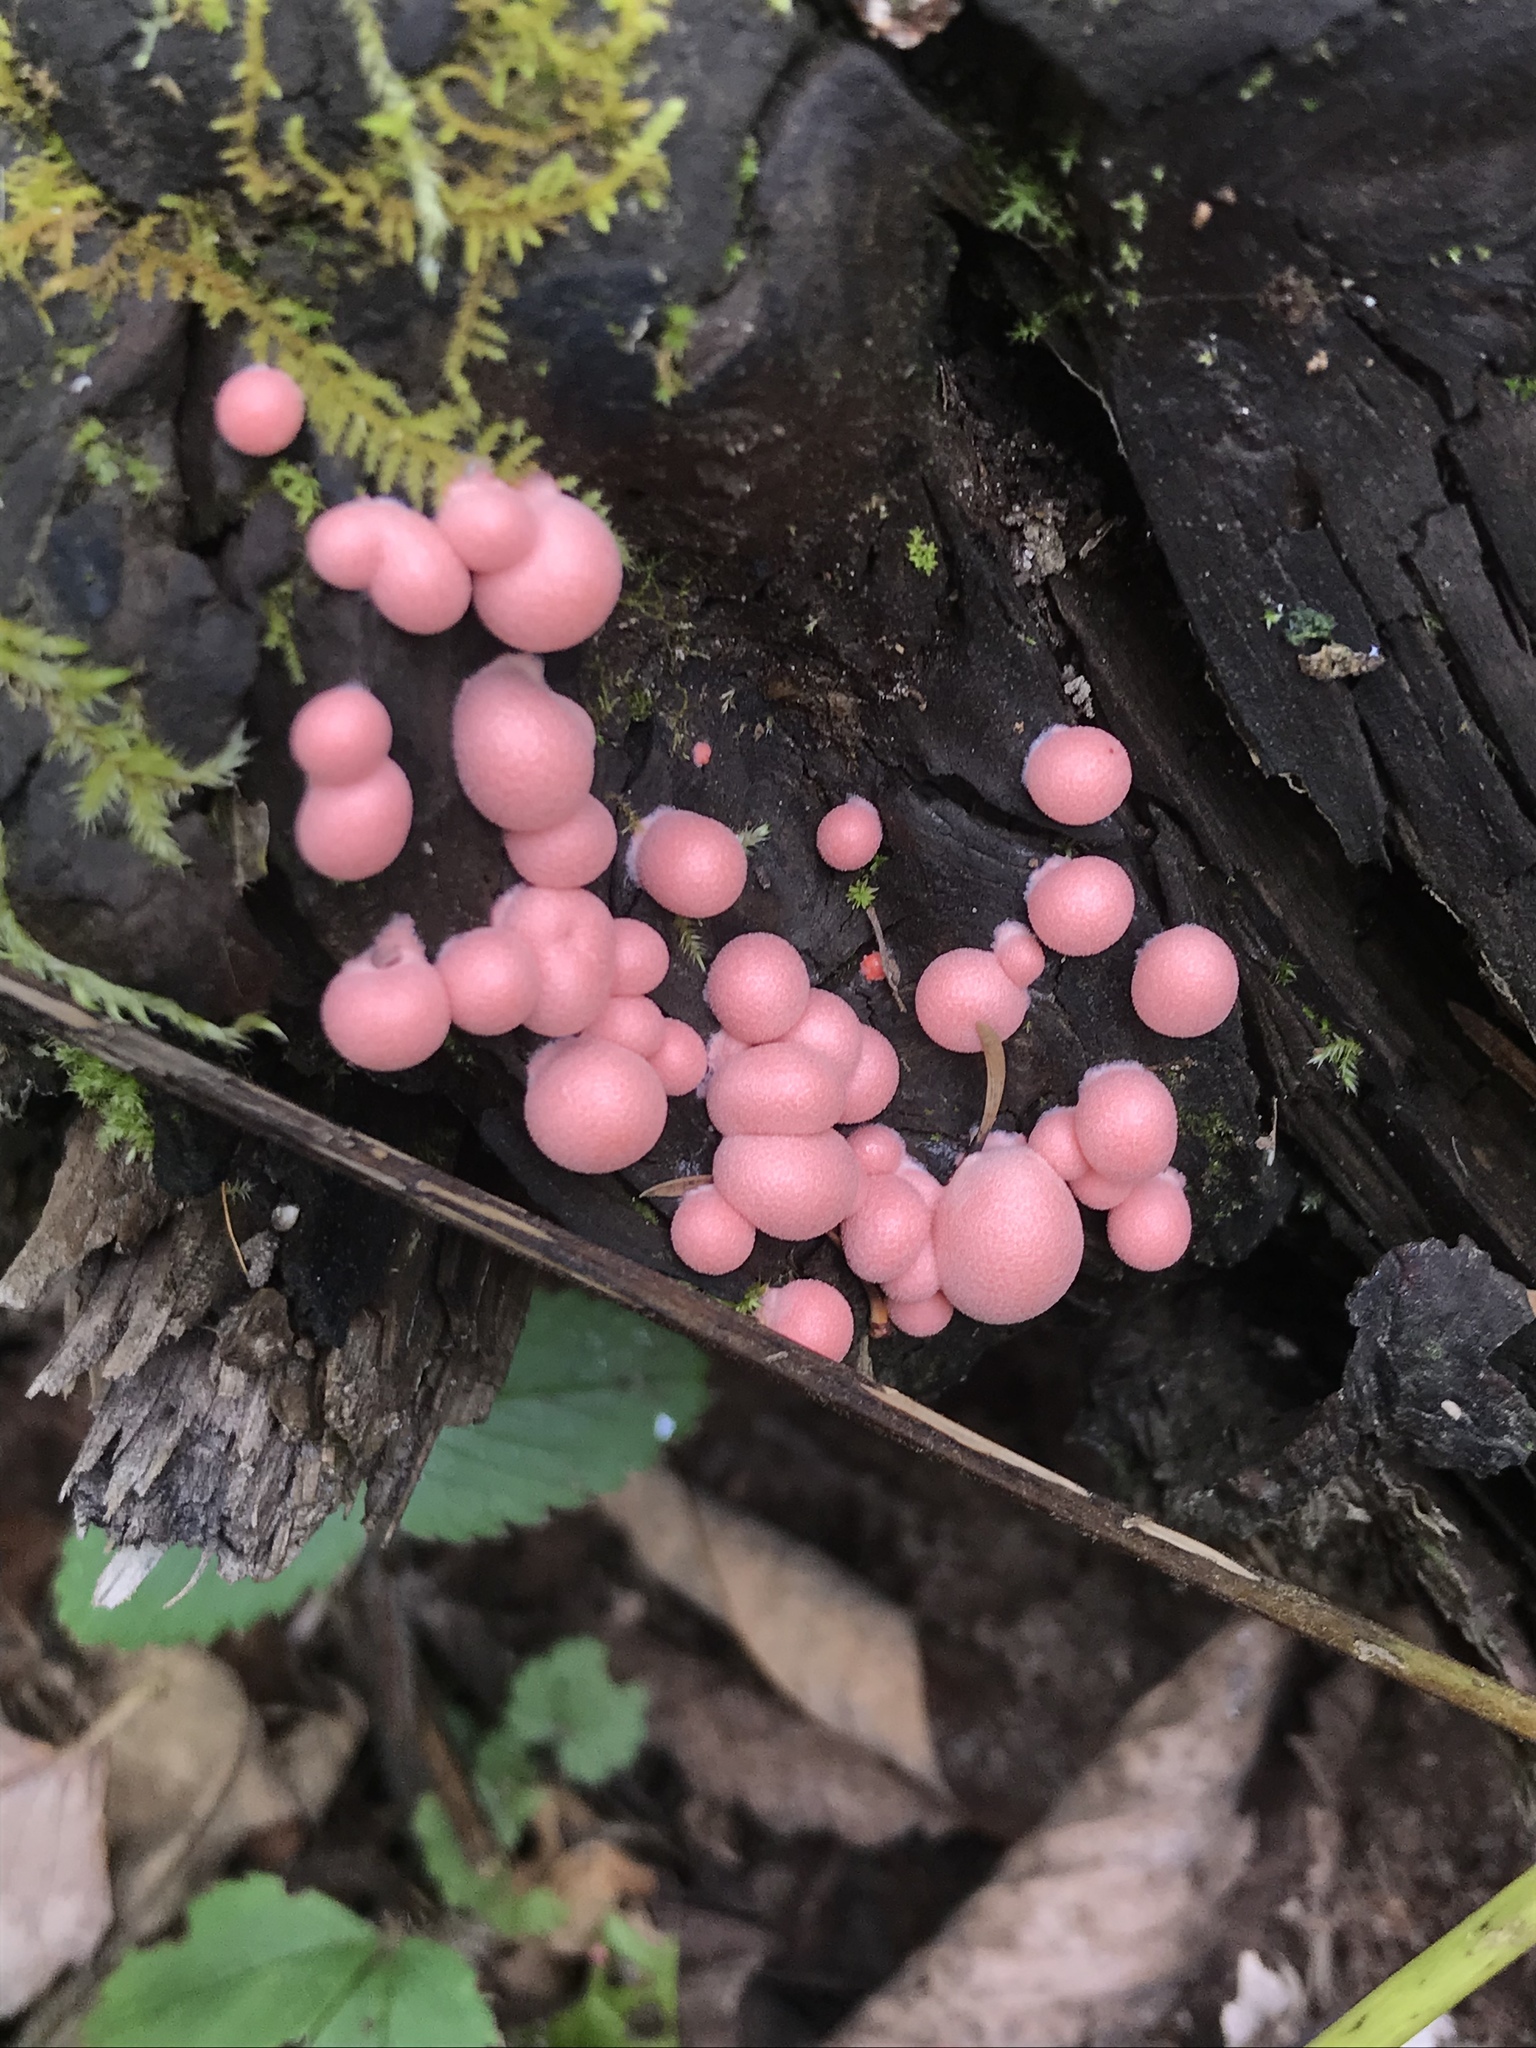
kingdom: Protozoa
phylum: Mycetozoa
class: Myxomycetes
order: Cribrariales
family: Tubiferaceae
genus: Lycogala
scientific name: Lycogala epidendrum
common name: Wolf's milk
